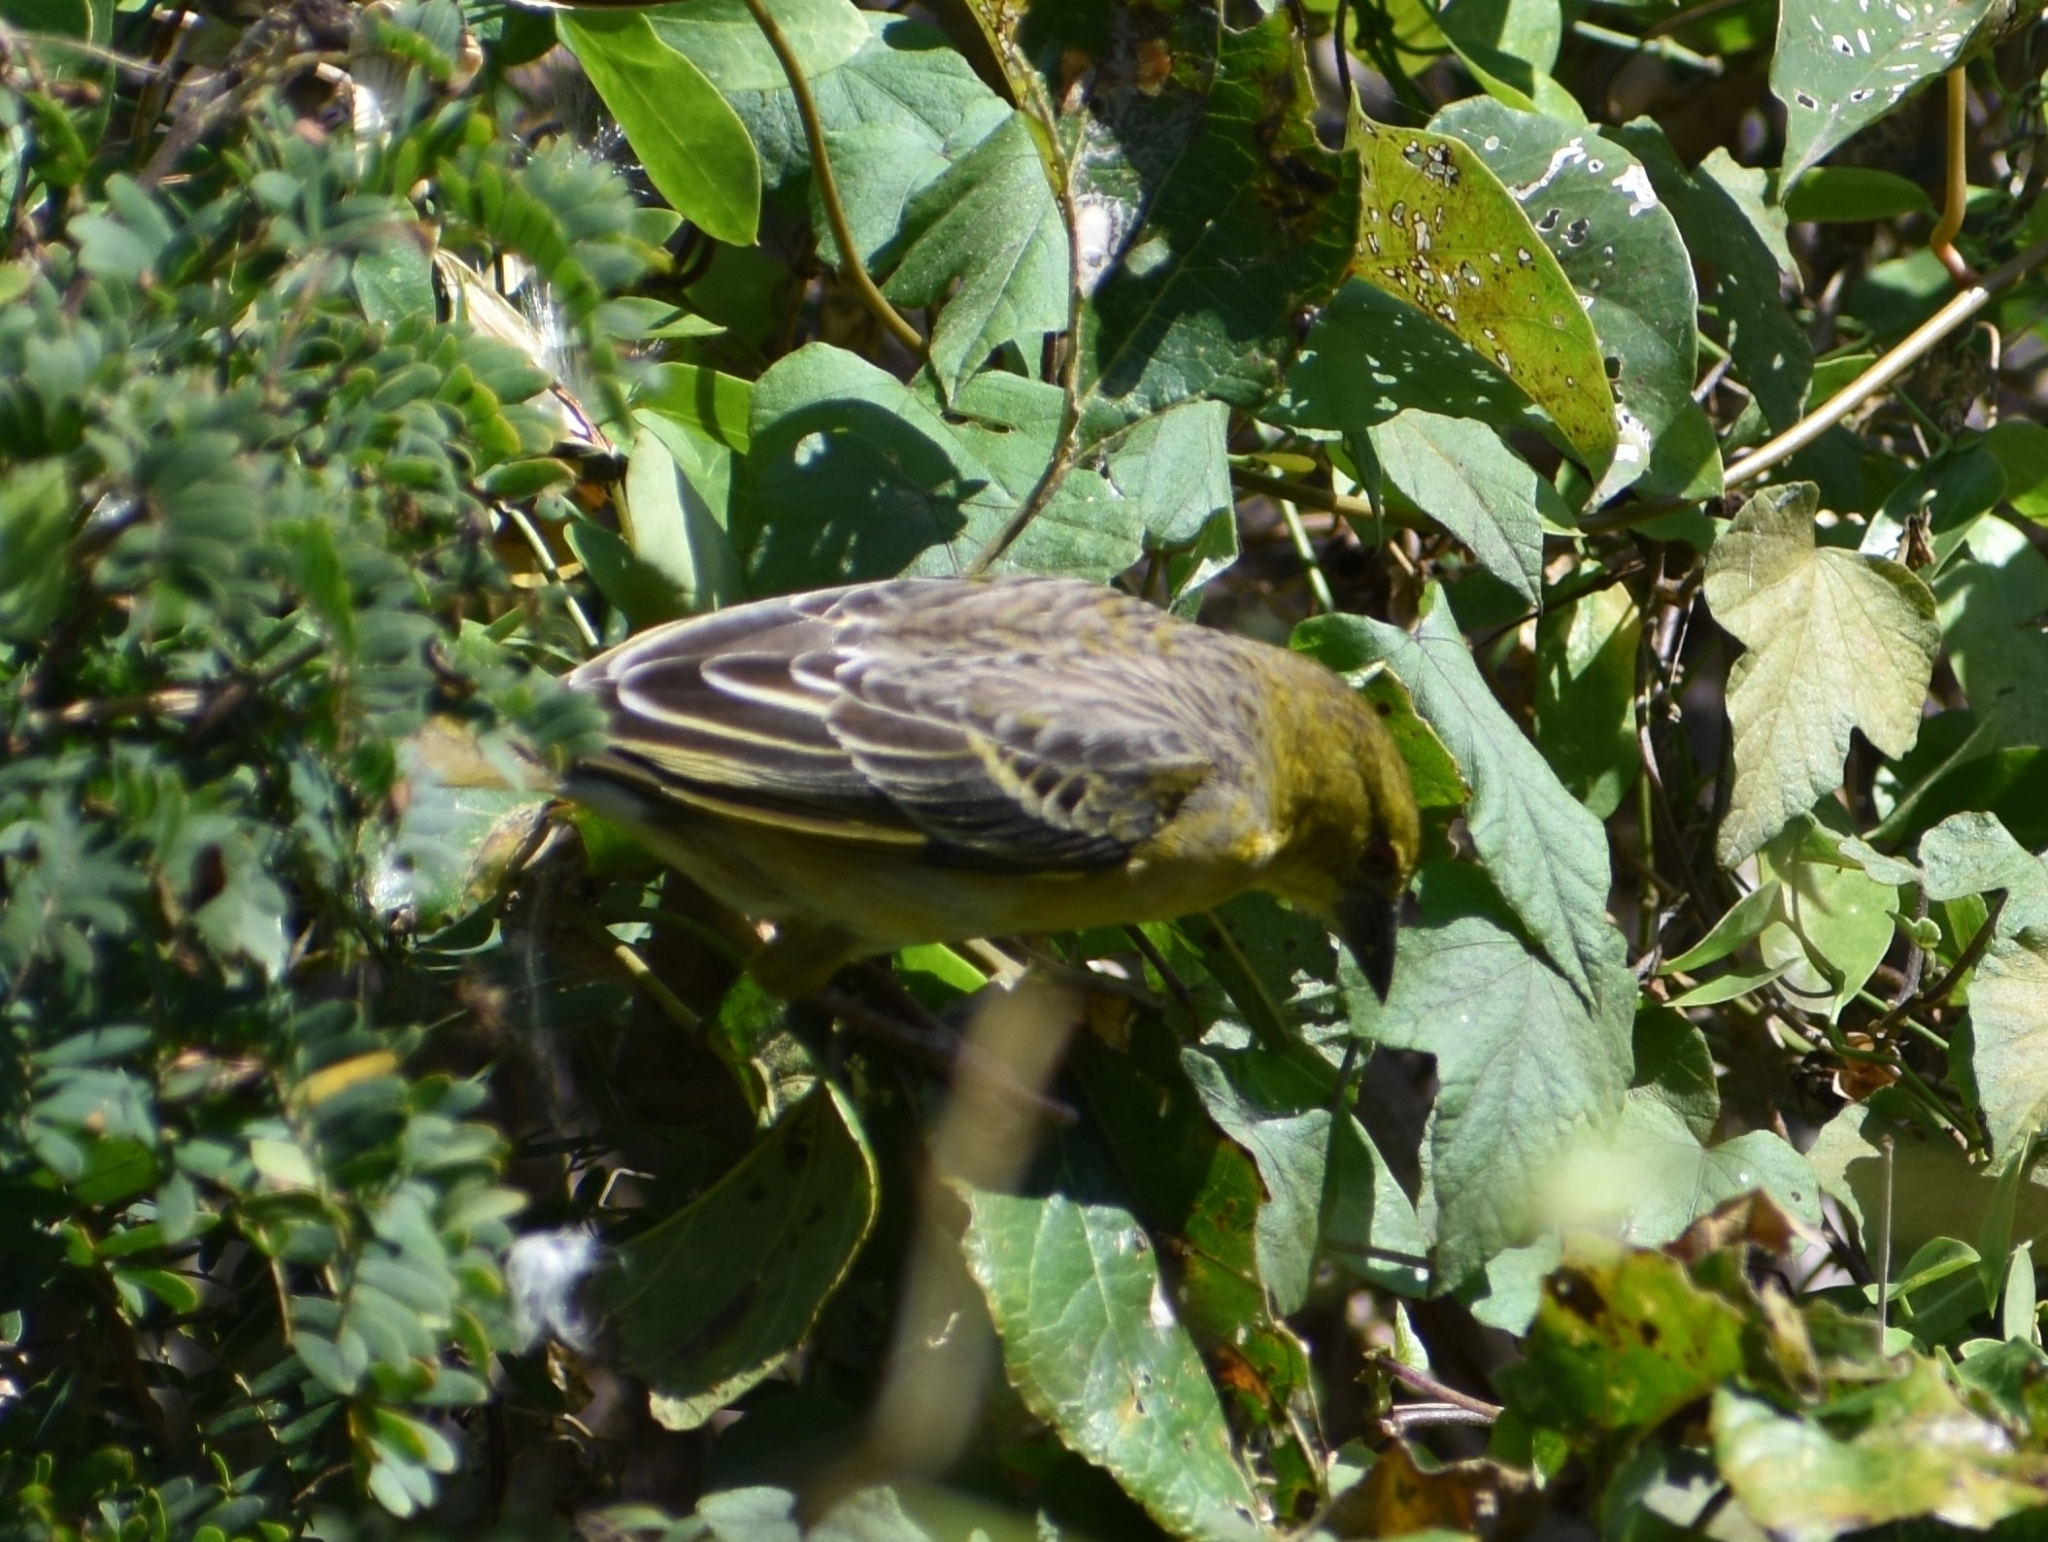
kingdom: Animalia
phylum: Chordata
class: Aves
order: Passeriformes
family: Ploceidae
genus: Ploceus
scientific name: Ploceus cucullatus
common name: Village weaver
